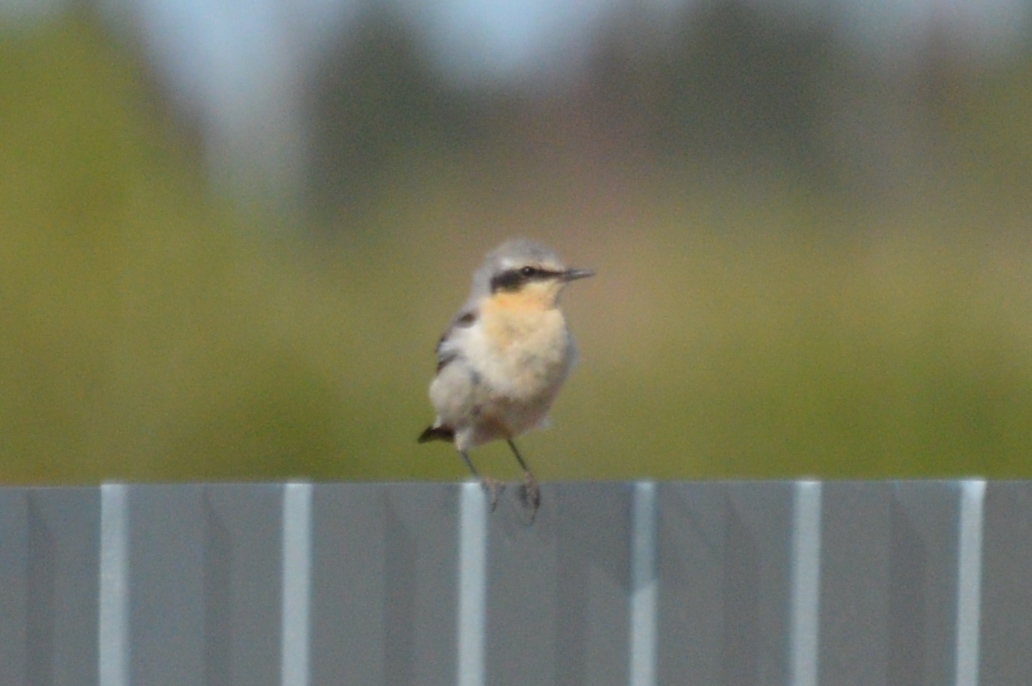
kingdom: Animalia
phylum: Chordata
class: Aves
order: Passeriformes
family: Muscicapidae
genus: Oenanthe
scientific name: Oenanthe oenanthe
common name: Northern wheatear
